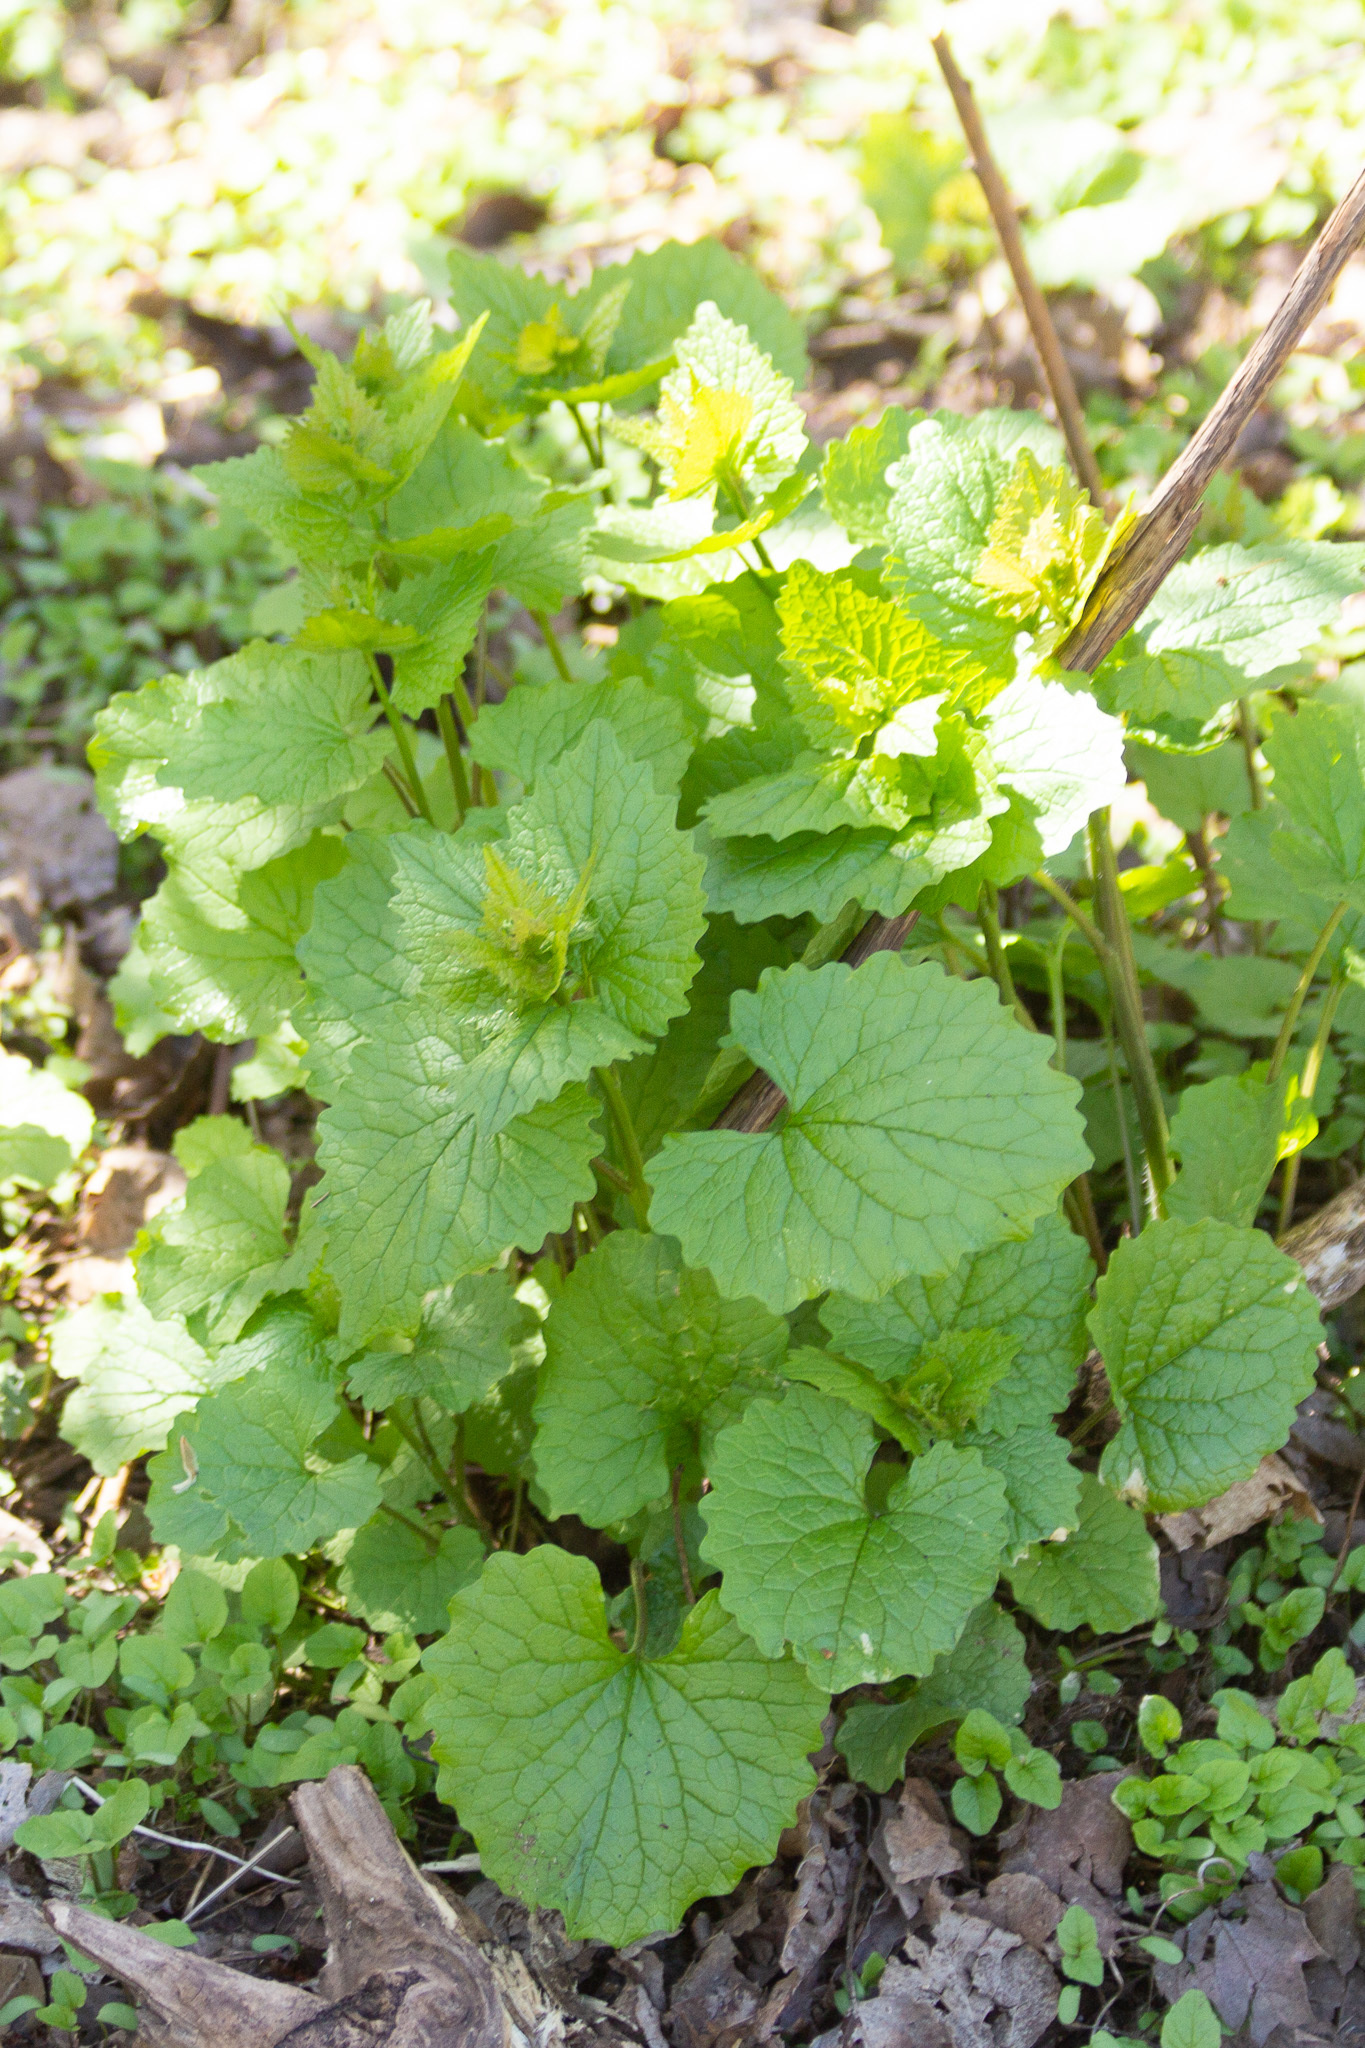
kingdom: Plantae
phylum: Tracheophyta
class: Magnoliopsida
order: Brassicales
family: Brassicaceae
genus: Alliaria
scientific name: Alliaria petiolata
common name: Garlic mustard
